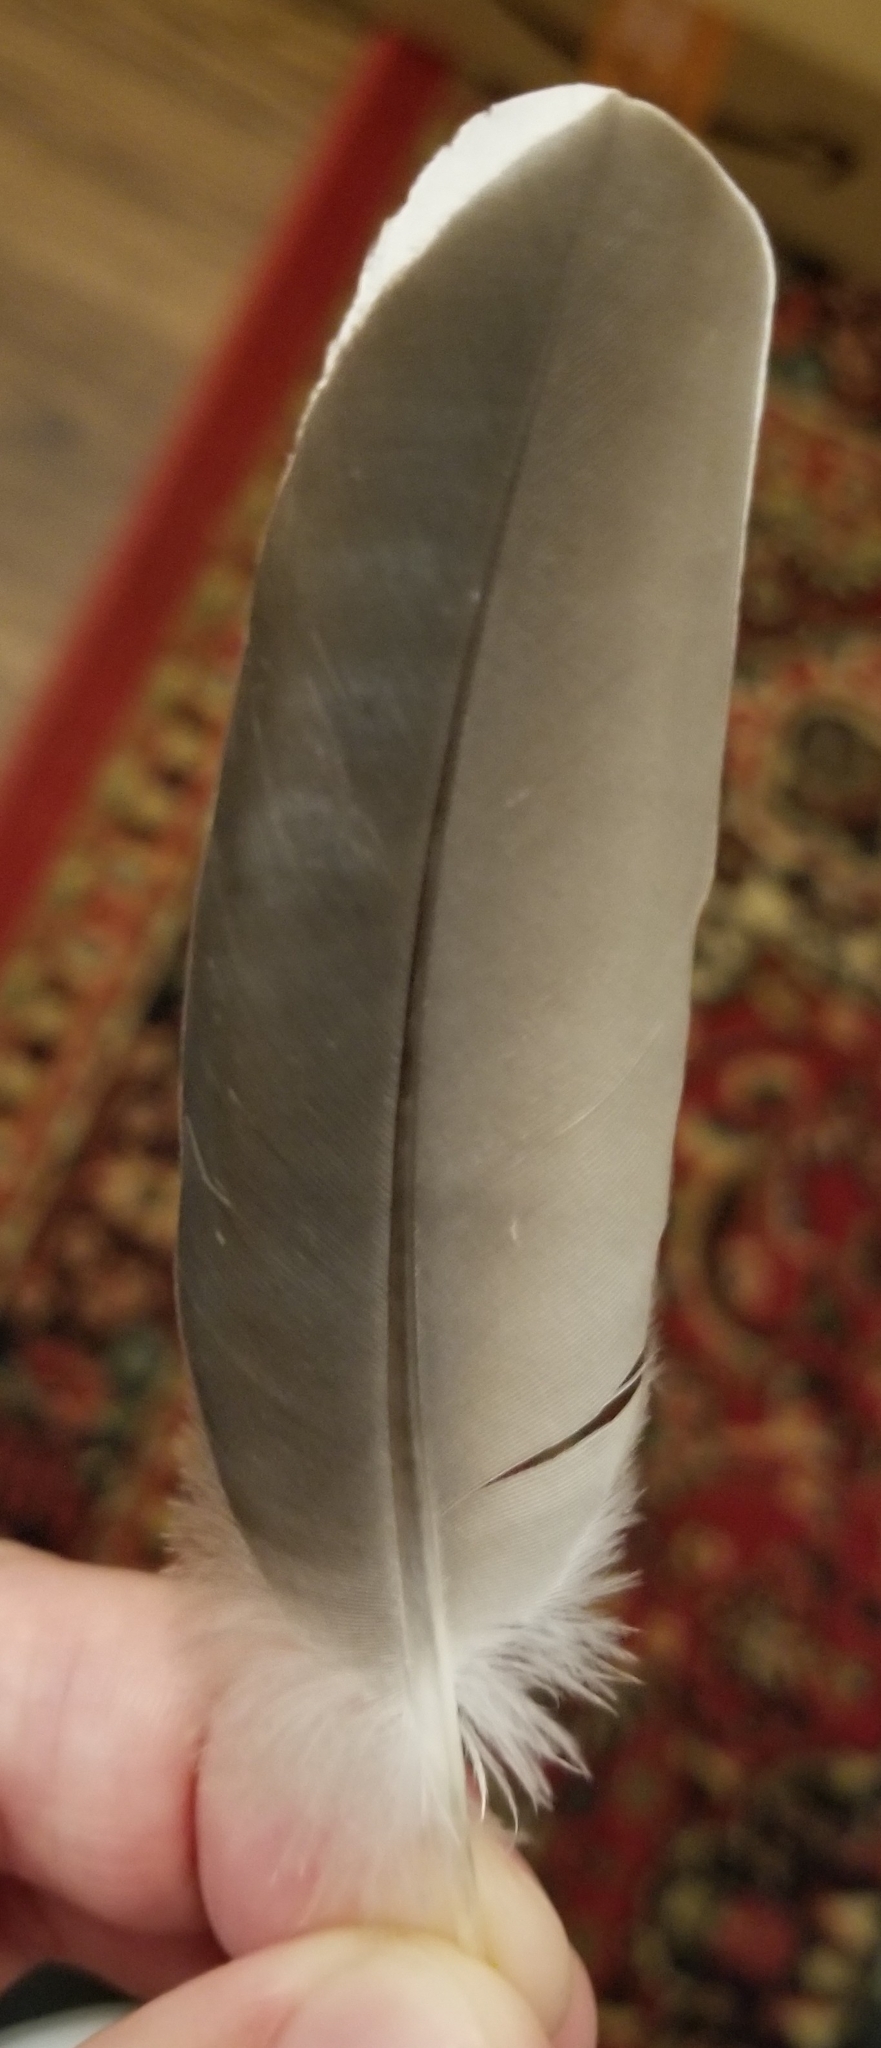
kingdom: Animalia
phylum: Chordata
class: Aves
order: Columbiformes
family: Columbidae
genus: Zenaida
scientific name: Zenaida asiatica
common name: White-winged dove
